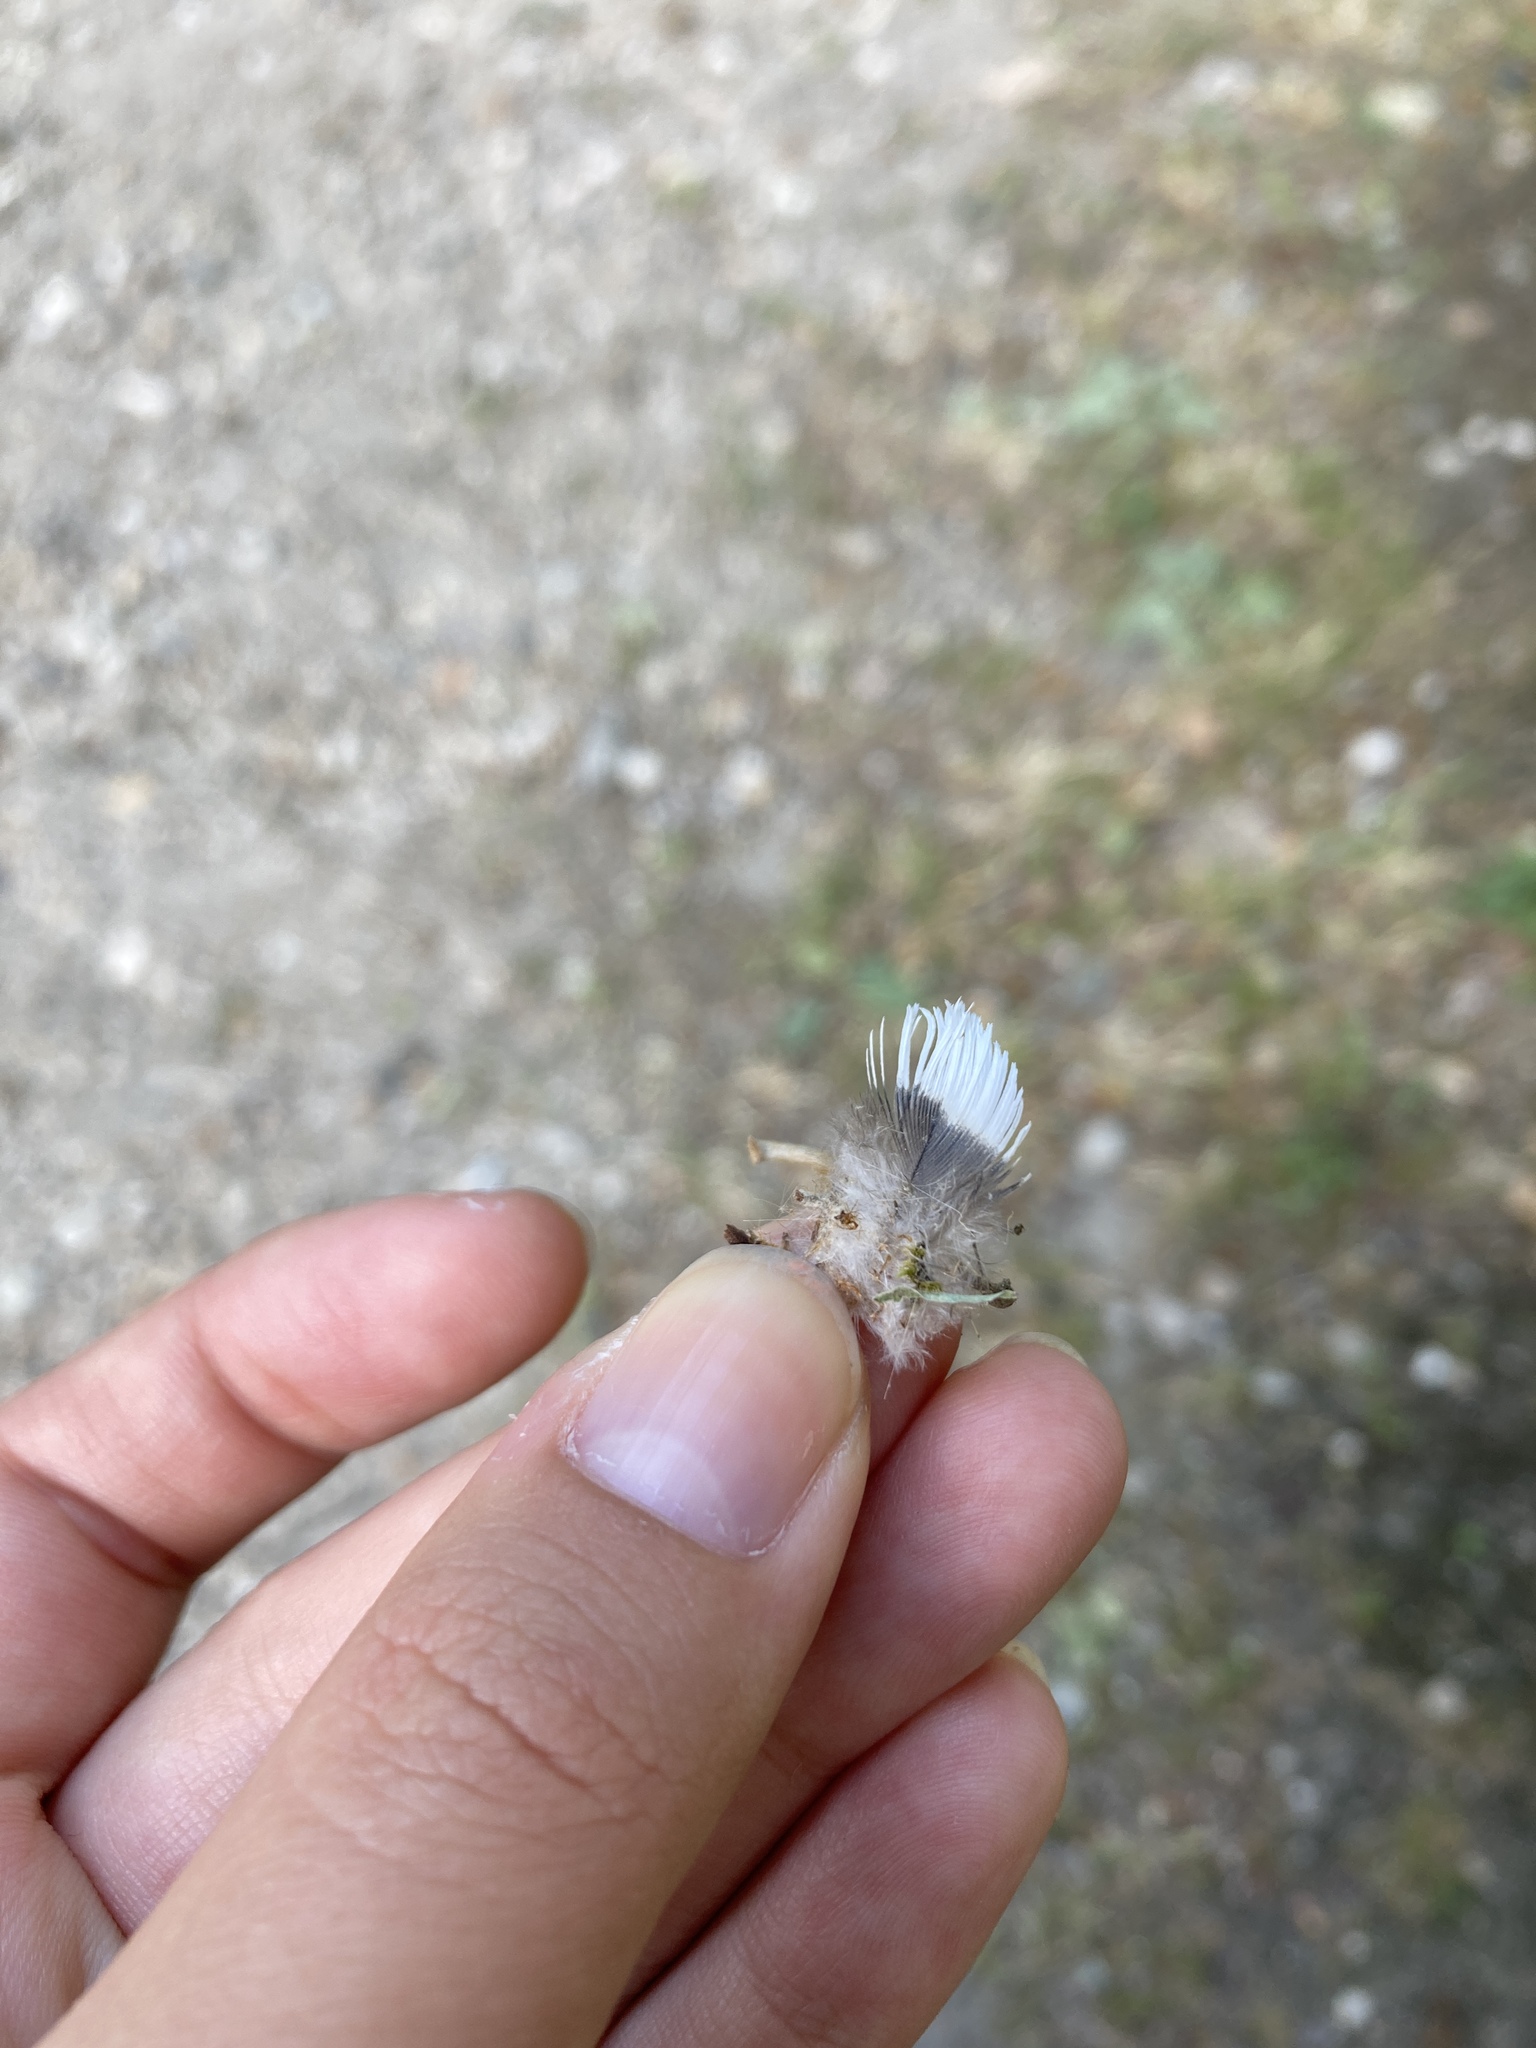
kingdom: Animalia
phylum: Chordata
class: Aves
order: Columbiformes
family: Columbidae
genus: Columba
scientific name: Columba palumbus
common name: Common wood pigeon
